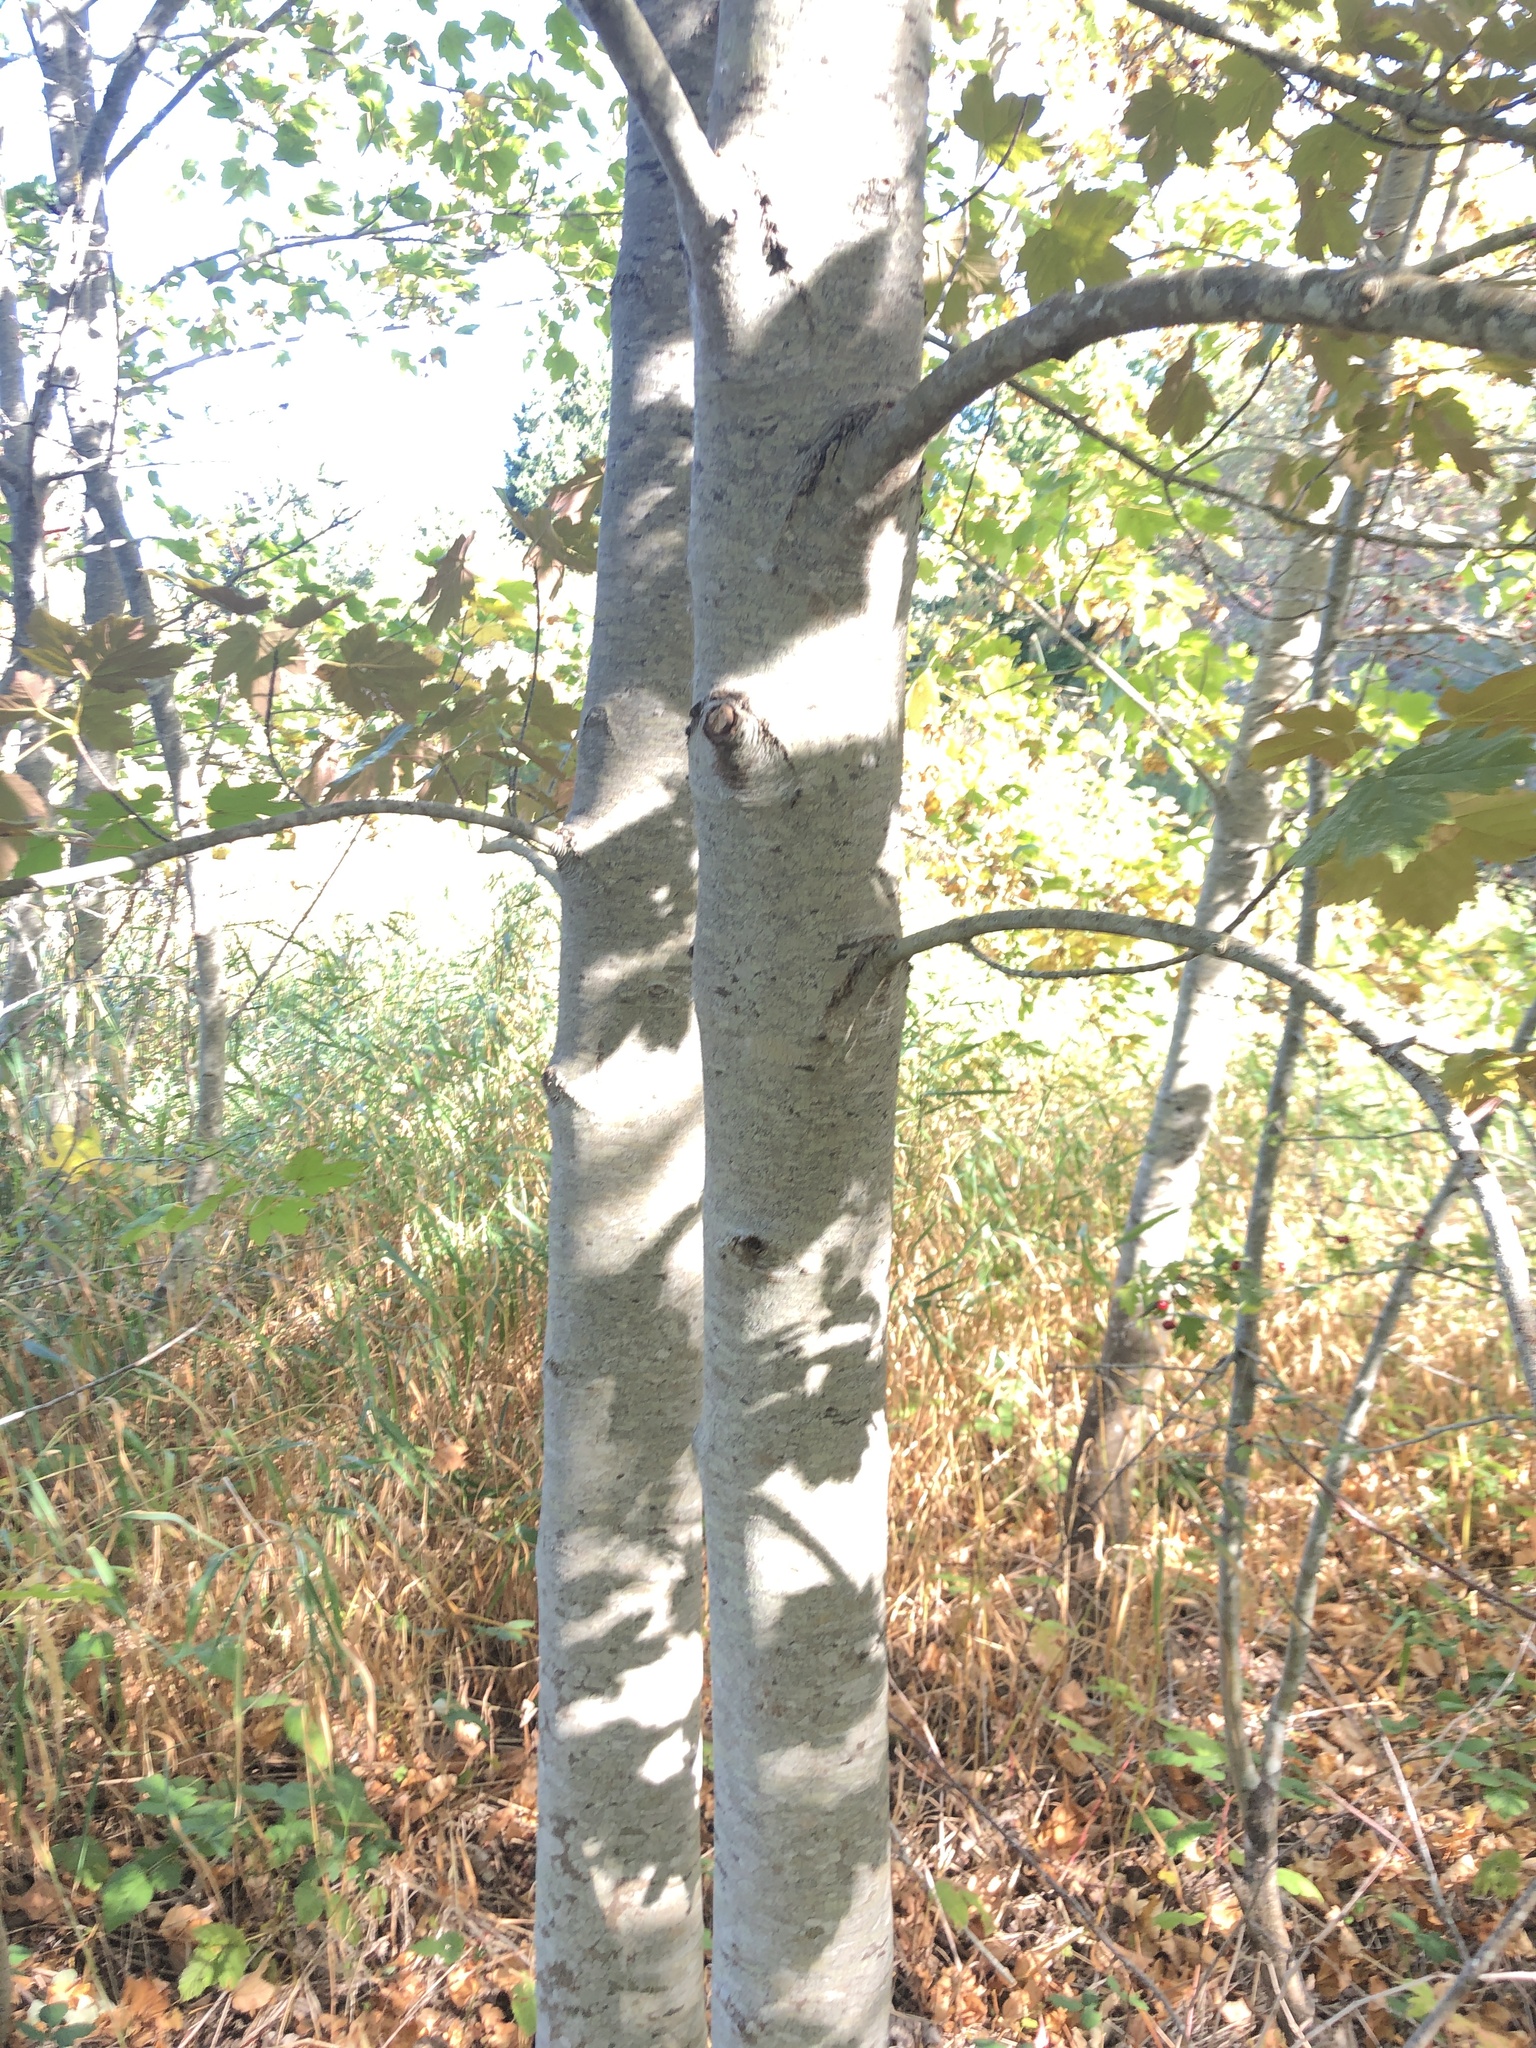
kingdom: Plantae
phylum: Tracheophyta
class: Magnoliopsida
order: Sapindales
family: Sapindaceae
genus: Acer
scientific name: Acer pseudoplatanus
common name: Sycamore
